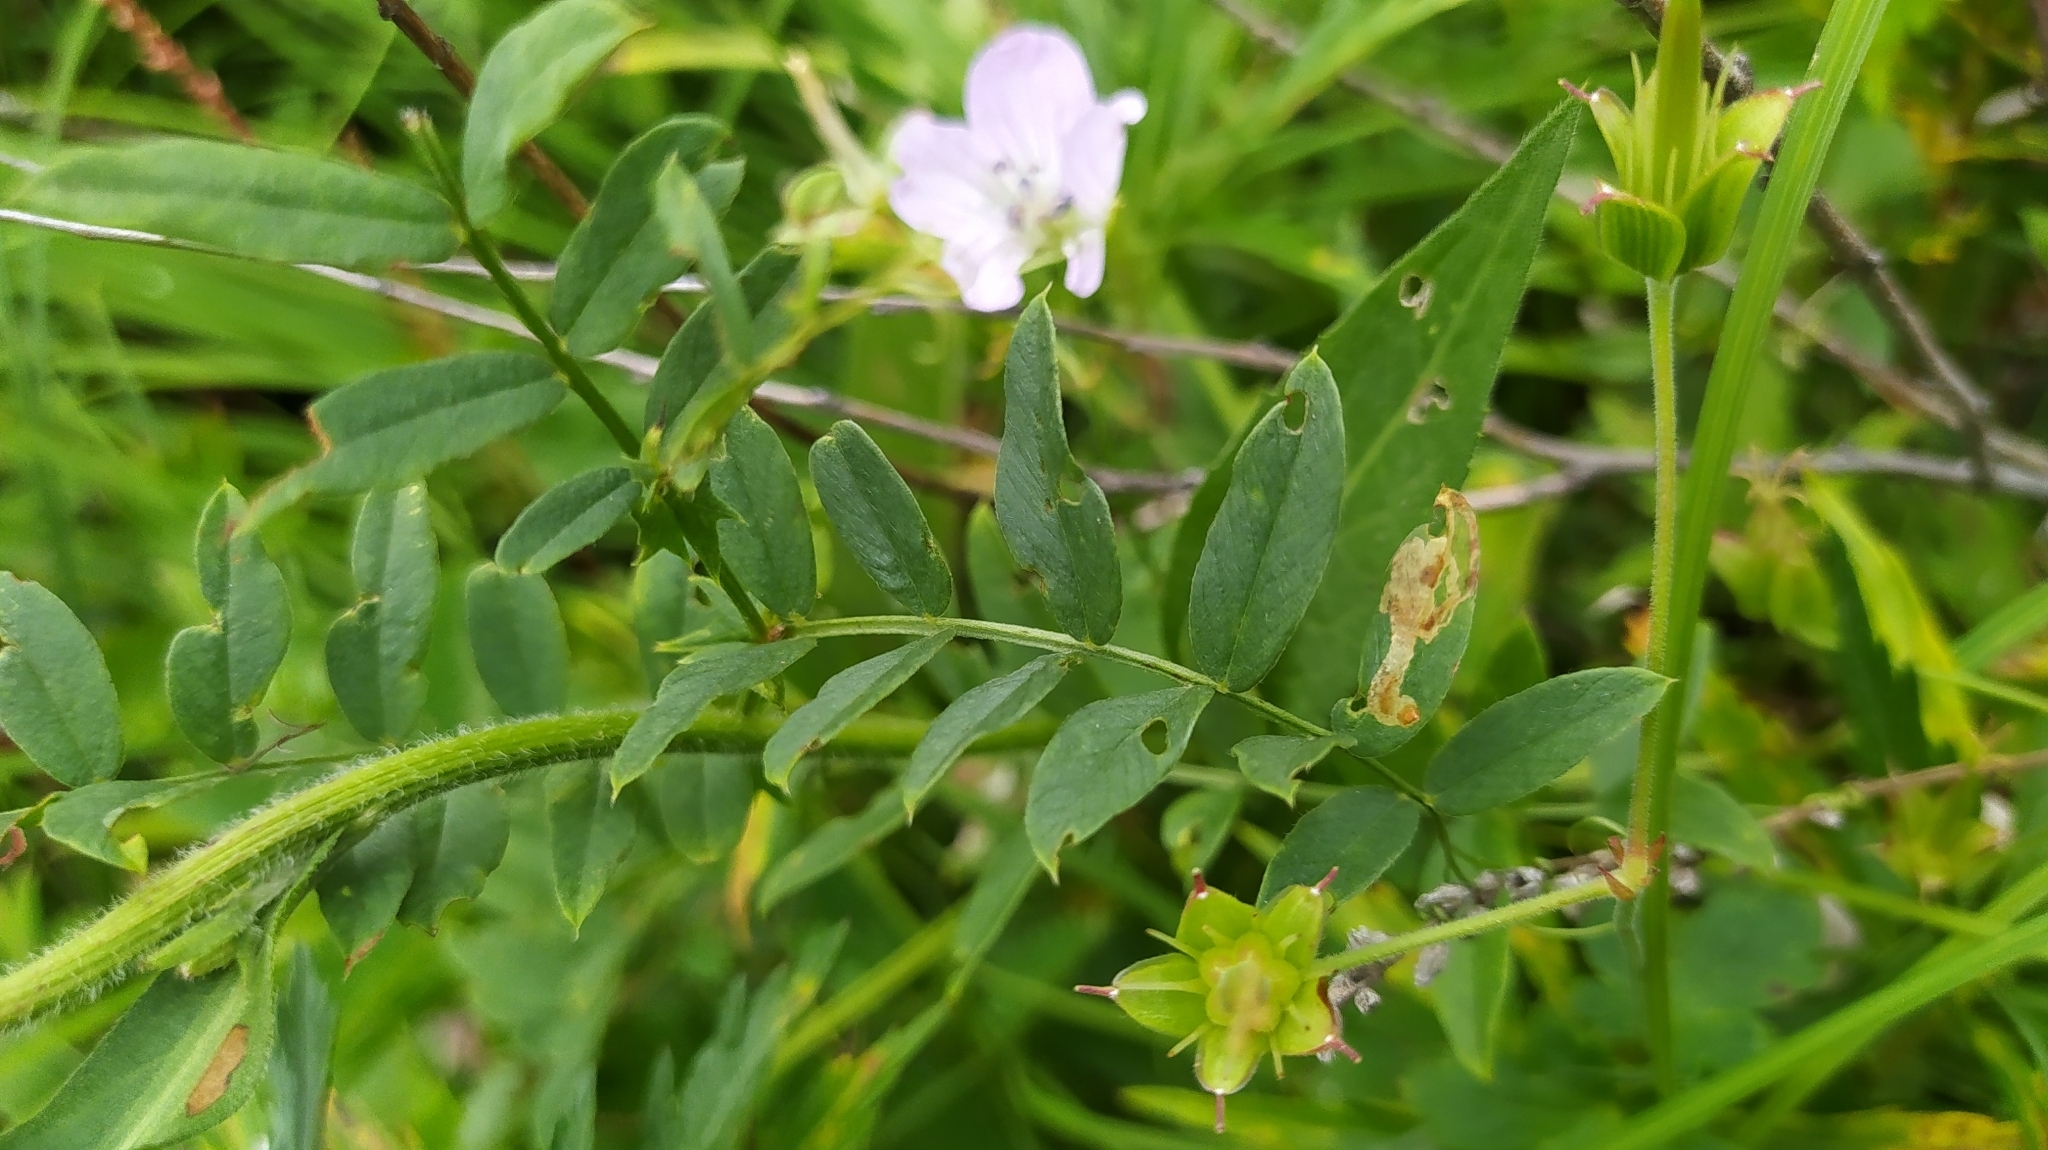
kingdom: Plantae
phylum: Tracheophyta
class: Magnoliopsida
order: Asterales
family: Asteraceae
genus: Aster
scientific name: Aster tataricus
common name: Tatarian aster
